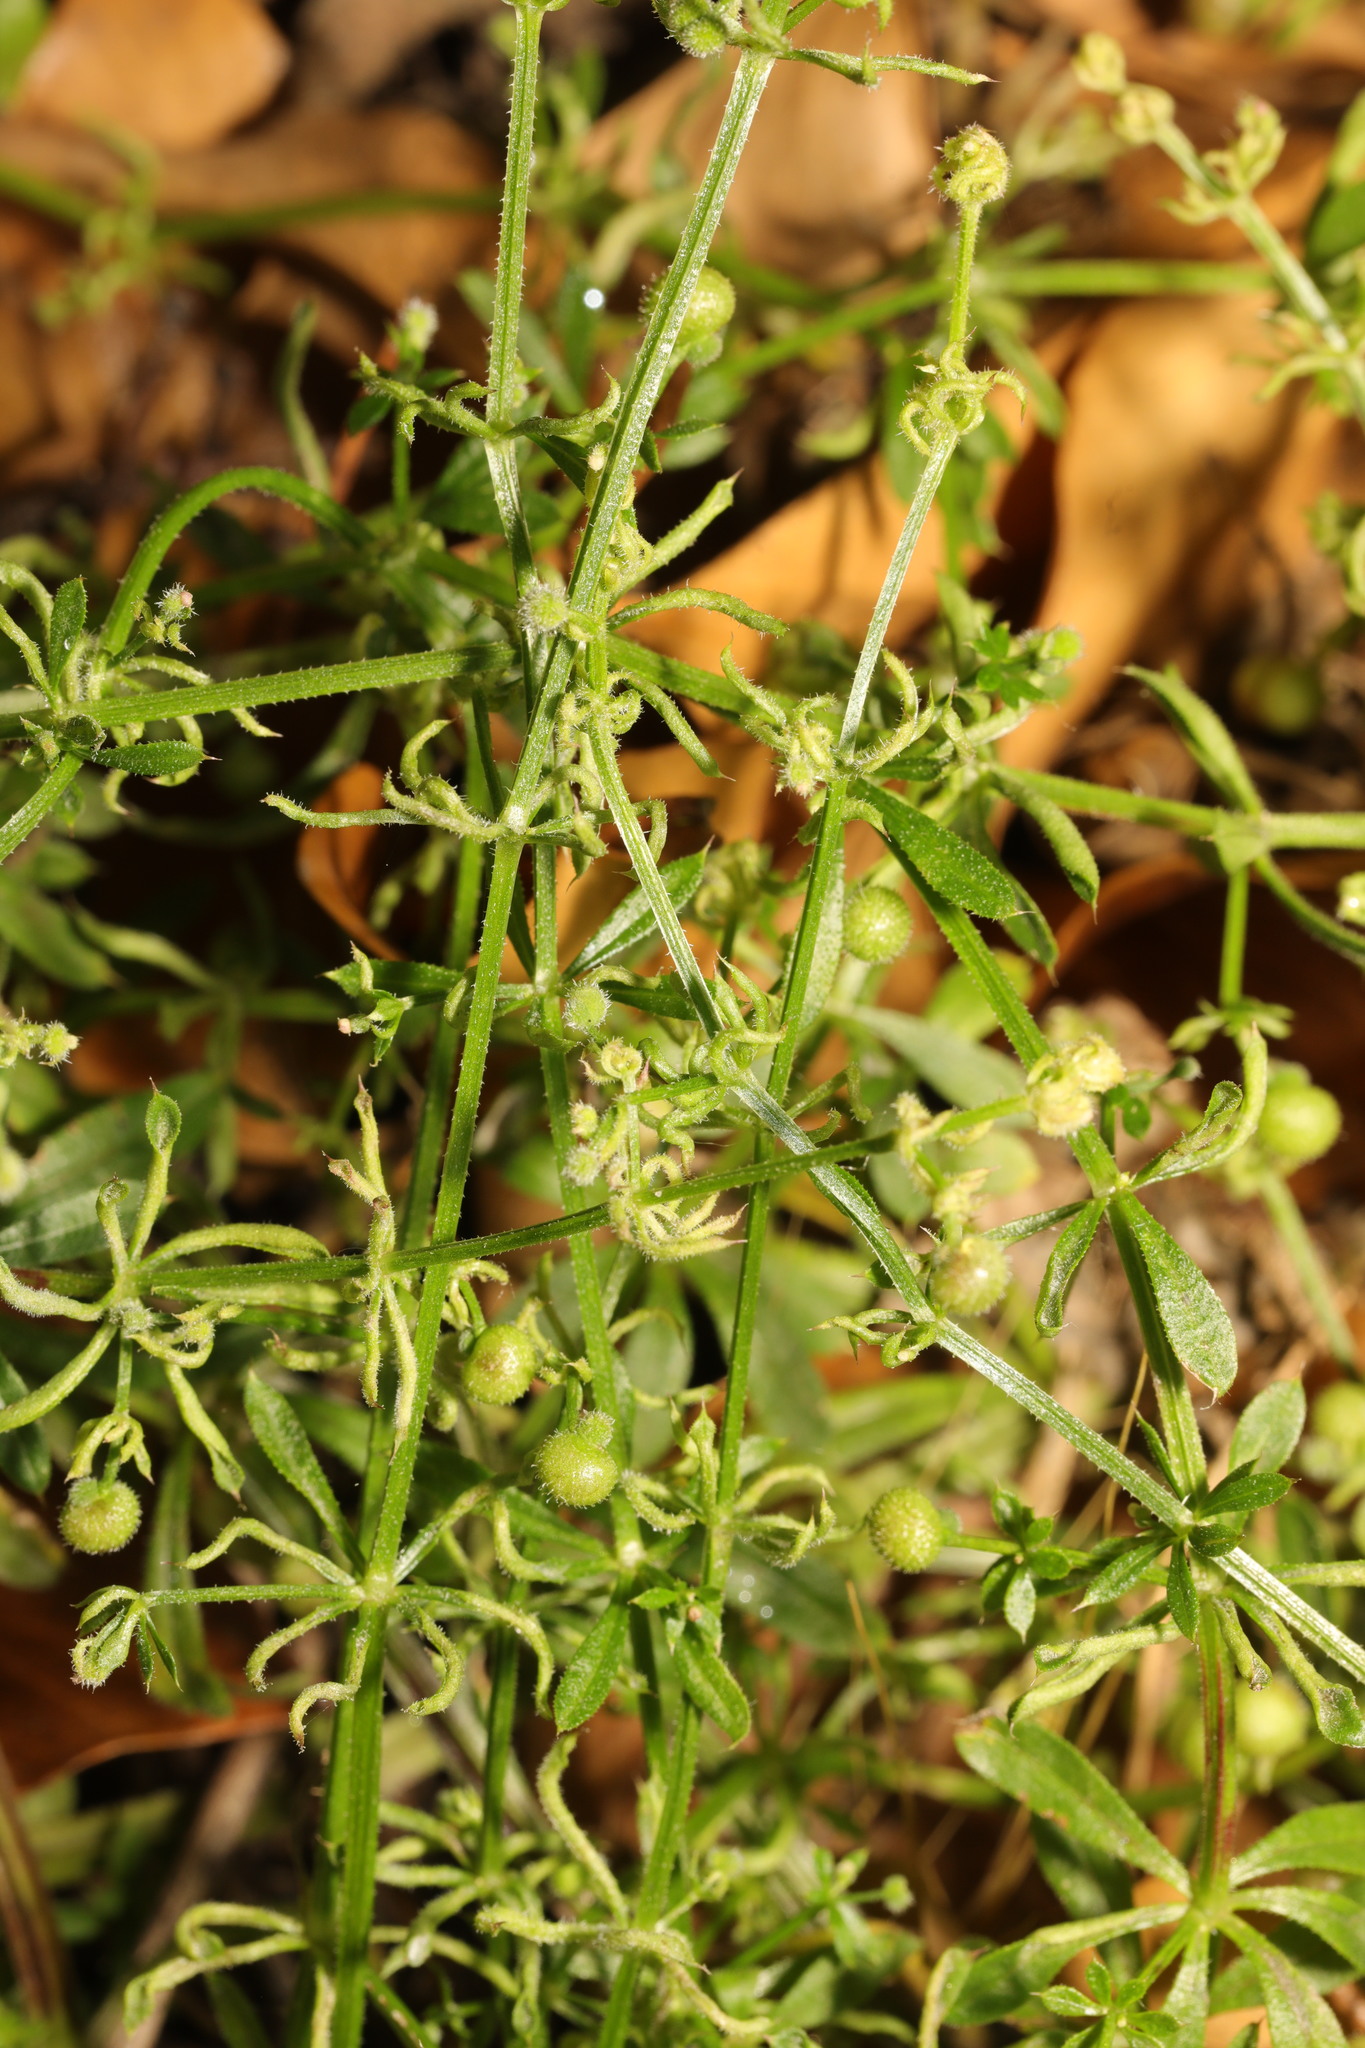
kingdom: Animalia
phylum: Arthropoda
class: Arachnida
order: Trombidiformes
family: Eriophyidae
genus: Cecidophyes
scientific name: Cecidophyes rouhollahi
